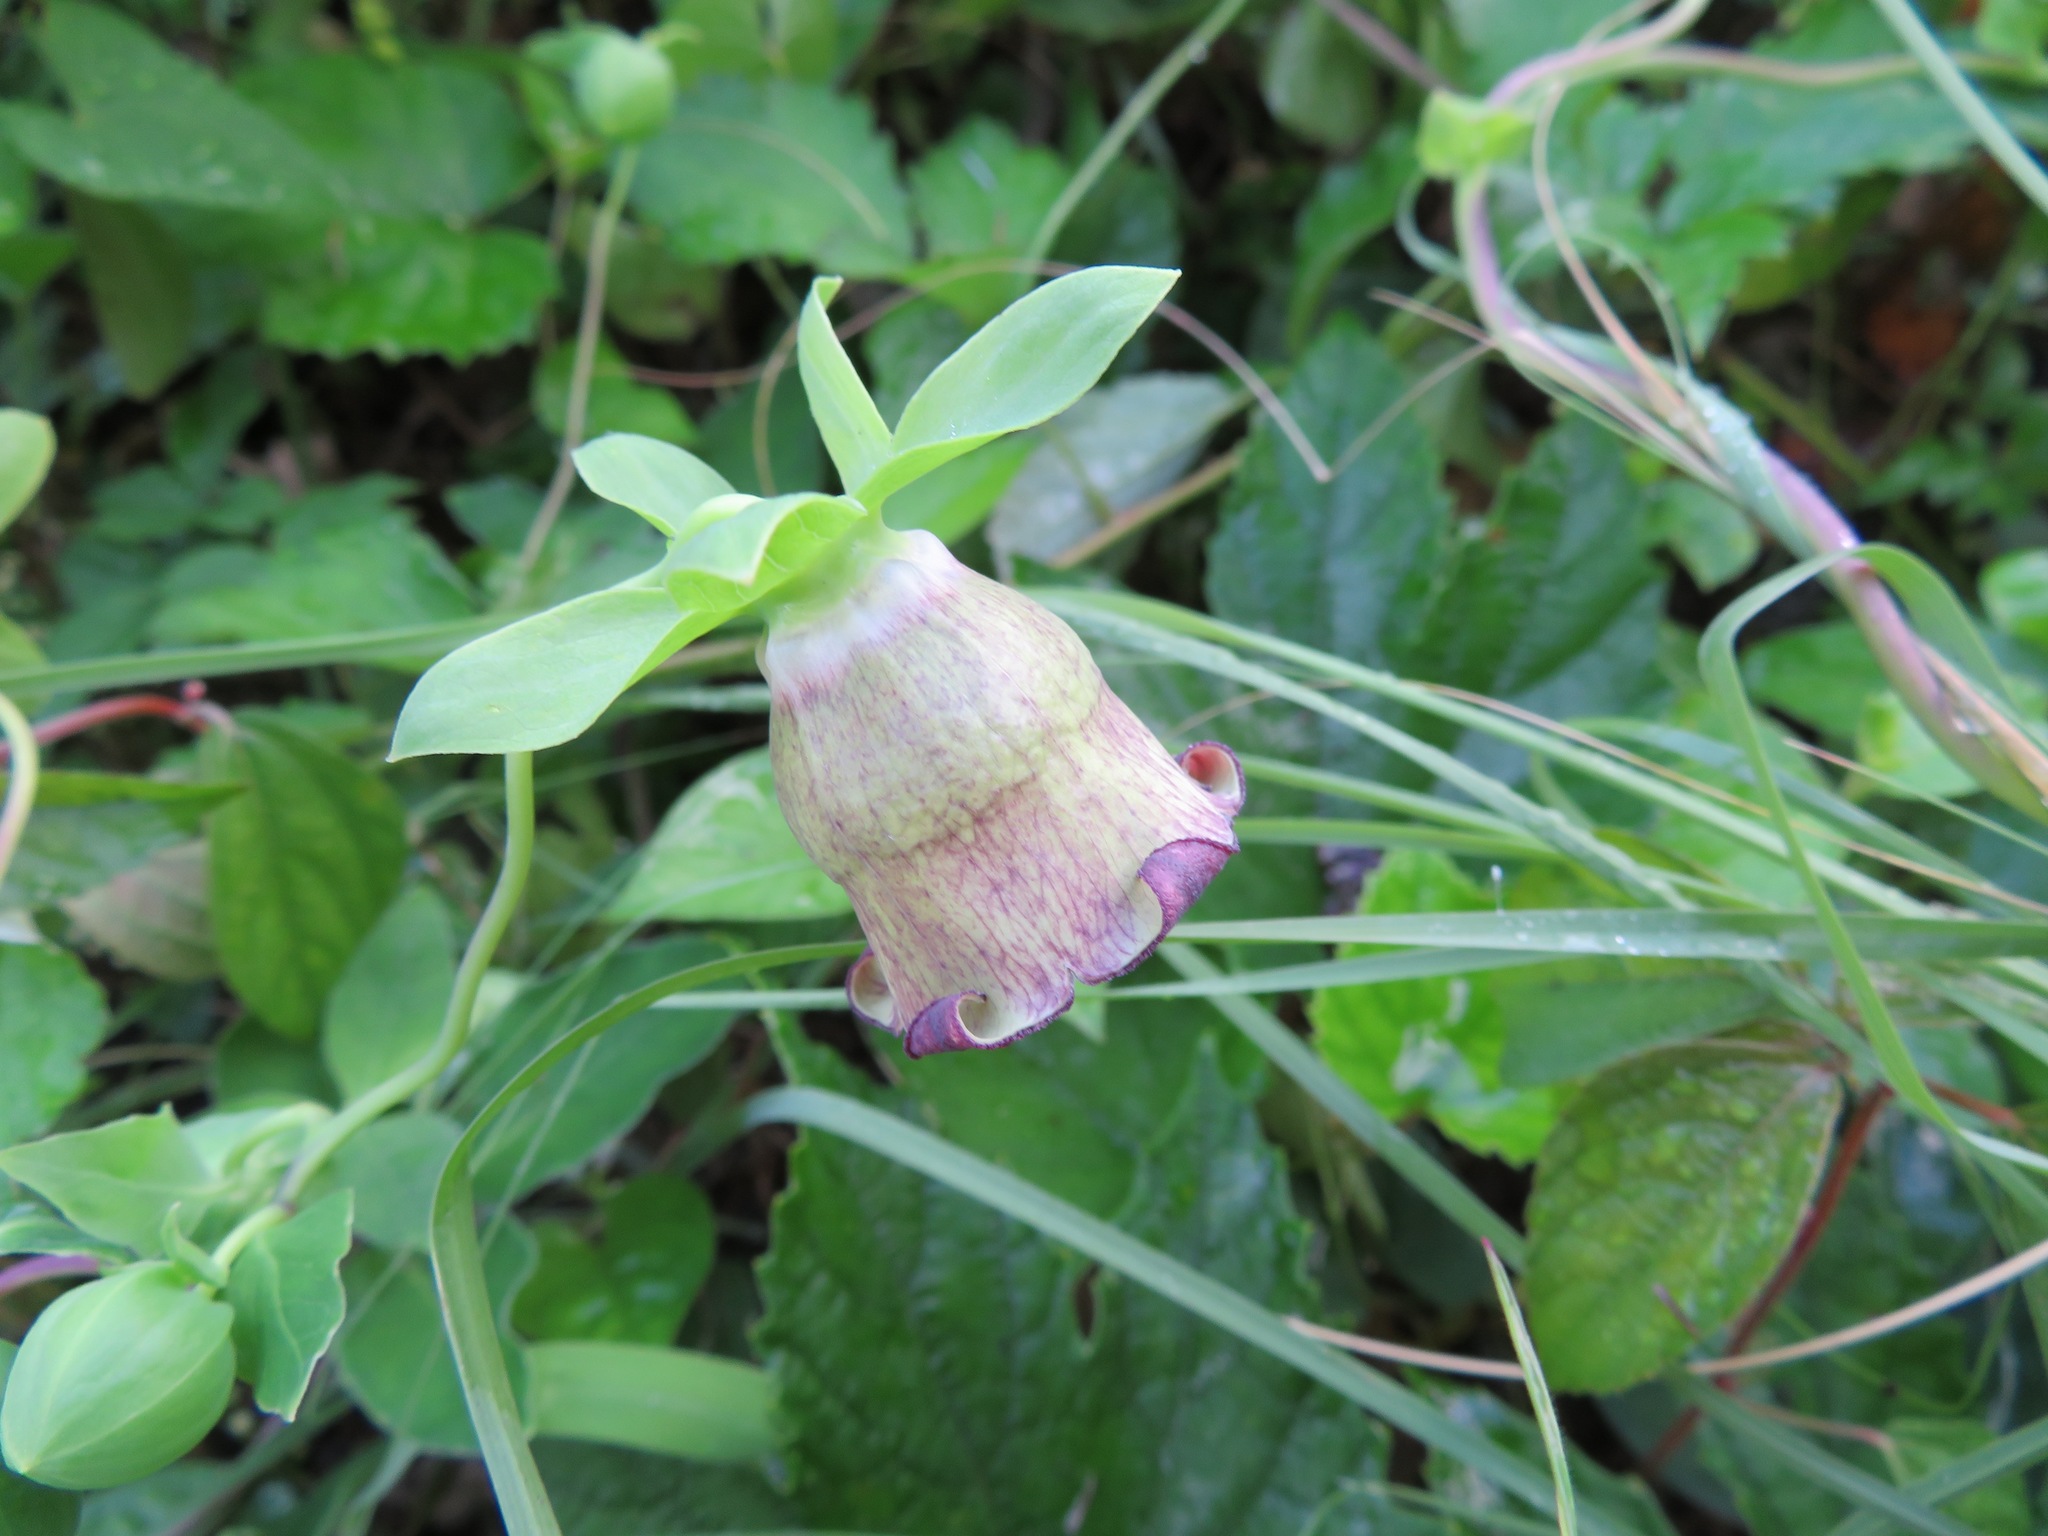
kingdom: Plantae
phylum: Tracheophyta
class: Magnoliopsida
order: Asterales
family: Campanulaceae
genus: Codonopsis
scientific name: Codonopsis lanceolata
